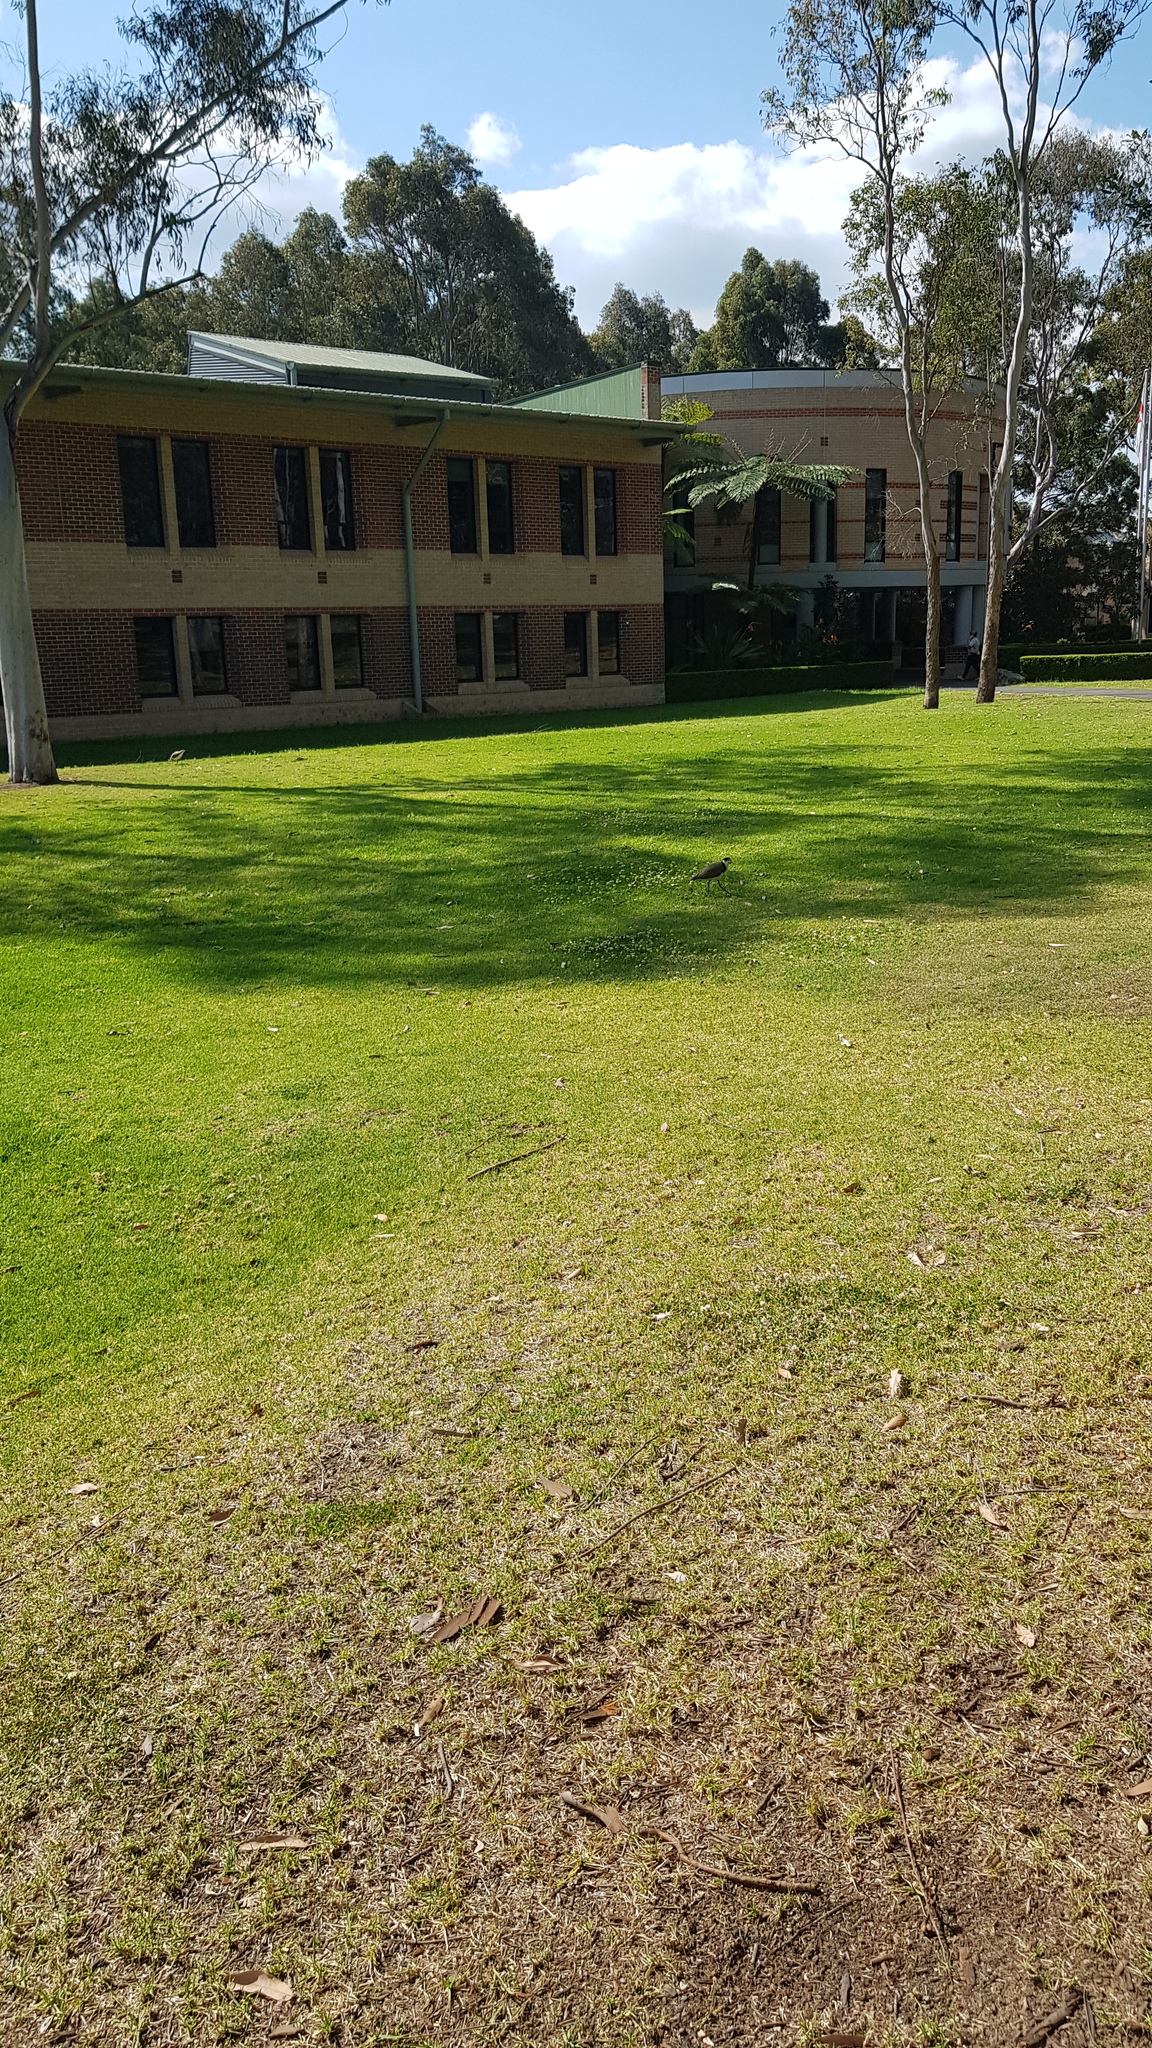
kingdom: Animalia
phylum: Chordata
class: Aves
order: Charadriiformes
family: Charadriidae
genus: Vanellus
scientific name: Vanellus miles
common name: Masked lapwing
